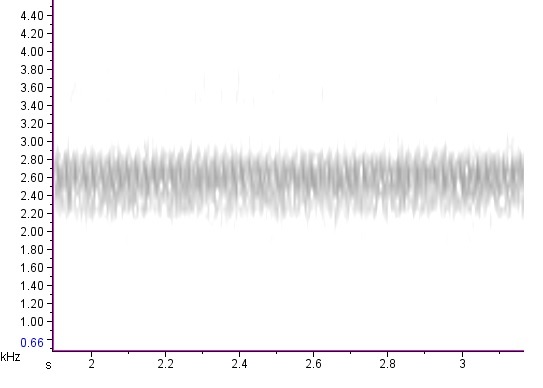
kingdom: Animalia
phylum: Arthropoda
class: Insecta
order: Orthoptera
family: Gryllidae
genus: Oecanthus
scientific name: Oecanthus latipennis
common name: Broad-winged tree cricket
